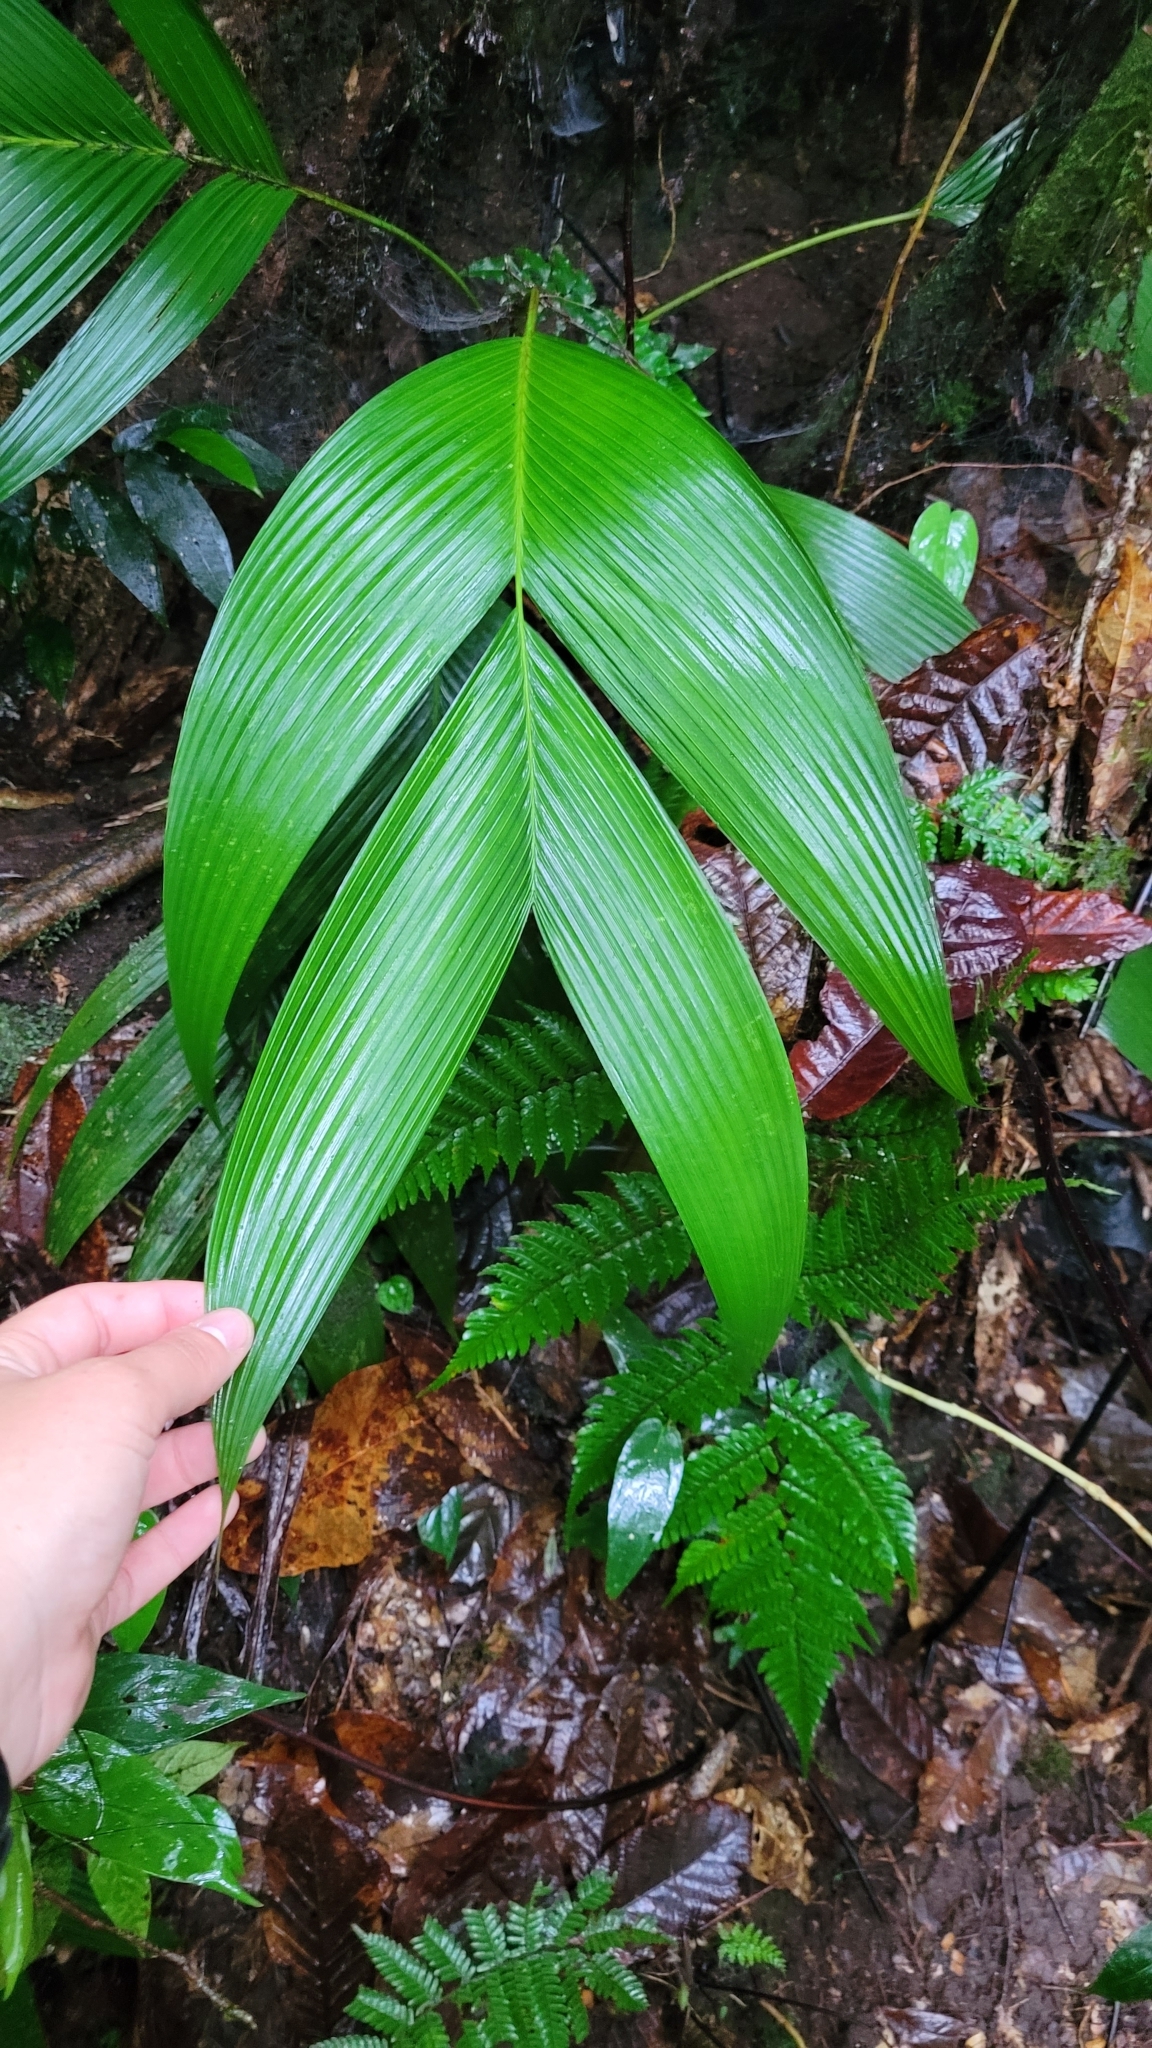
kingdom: Plantae
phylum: Tracheophyta
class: Liliopsida
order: Arecales
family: Arecaceae
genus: Geonoma
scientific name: Geonoma undata
